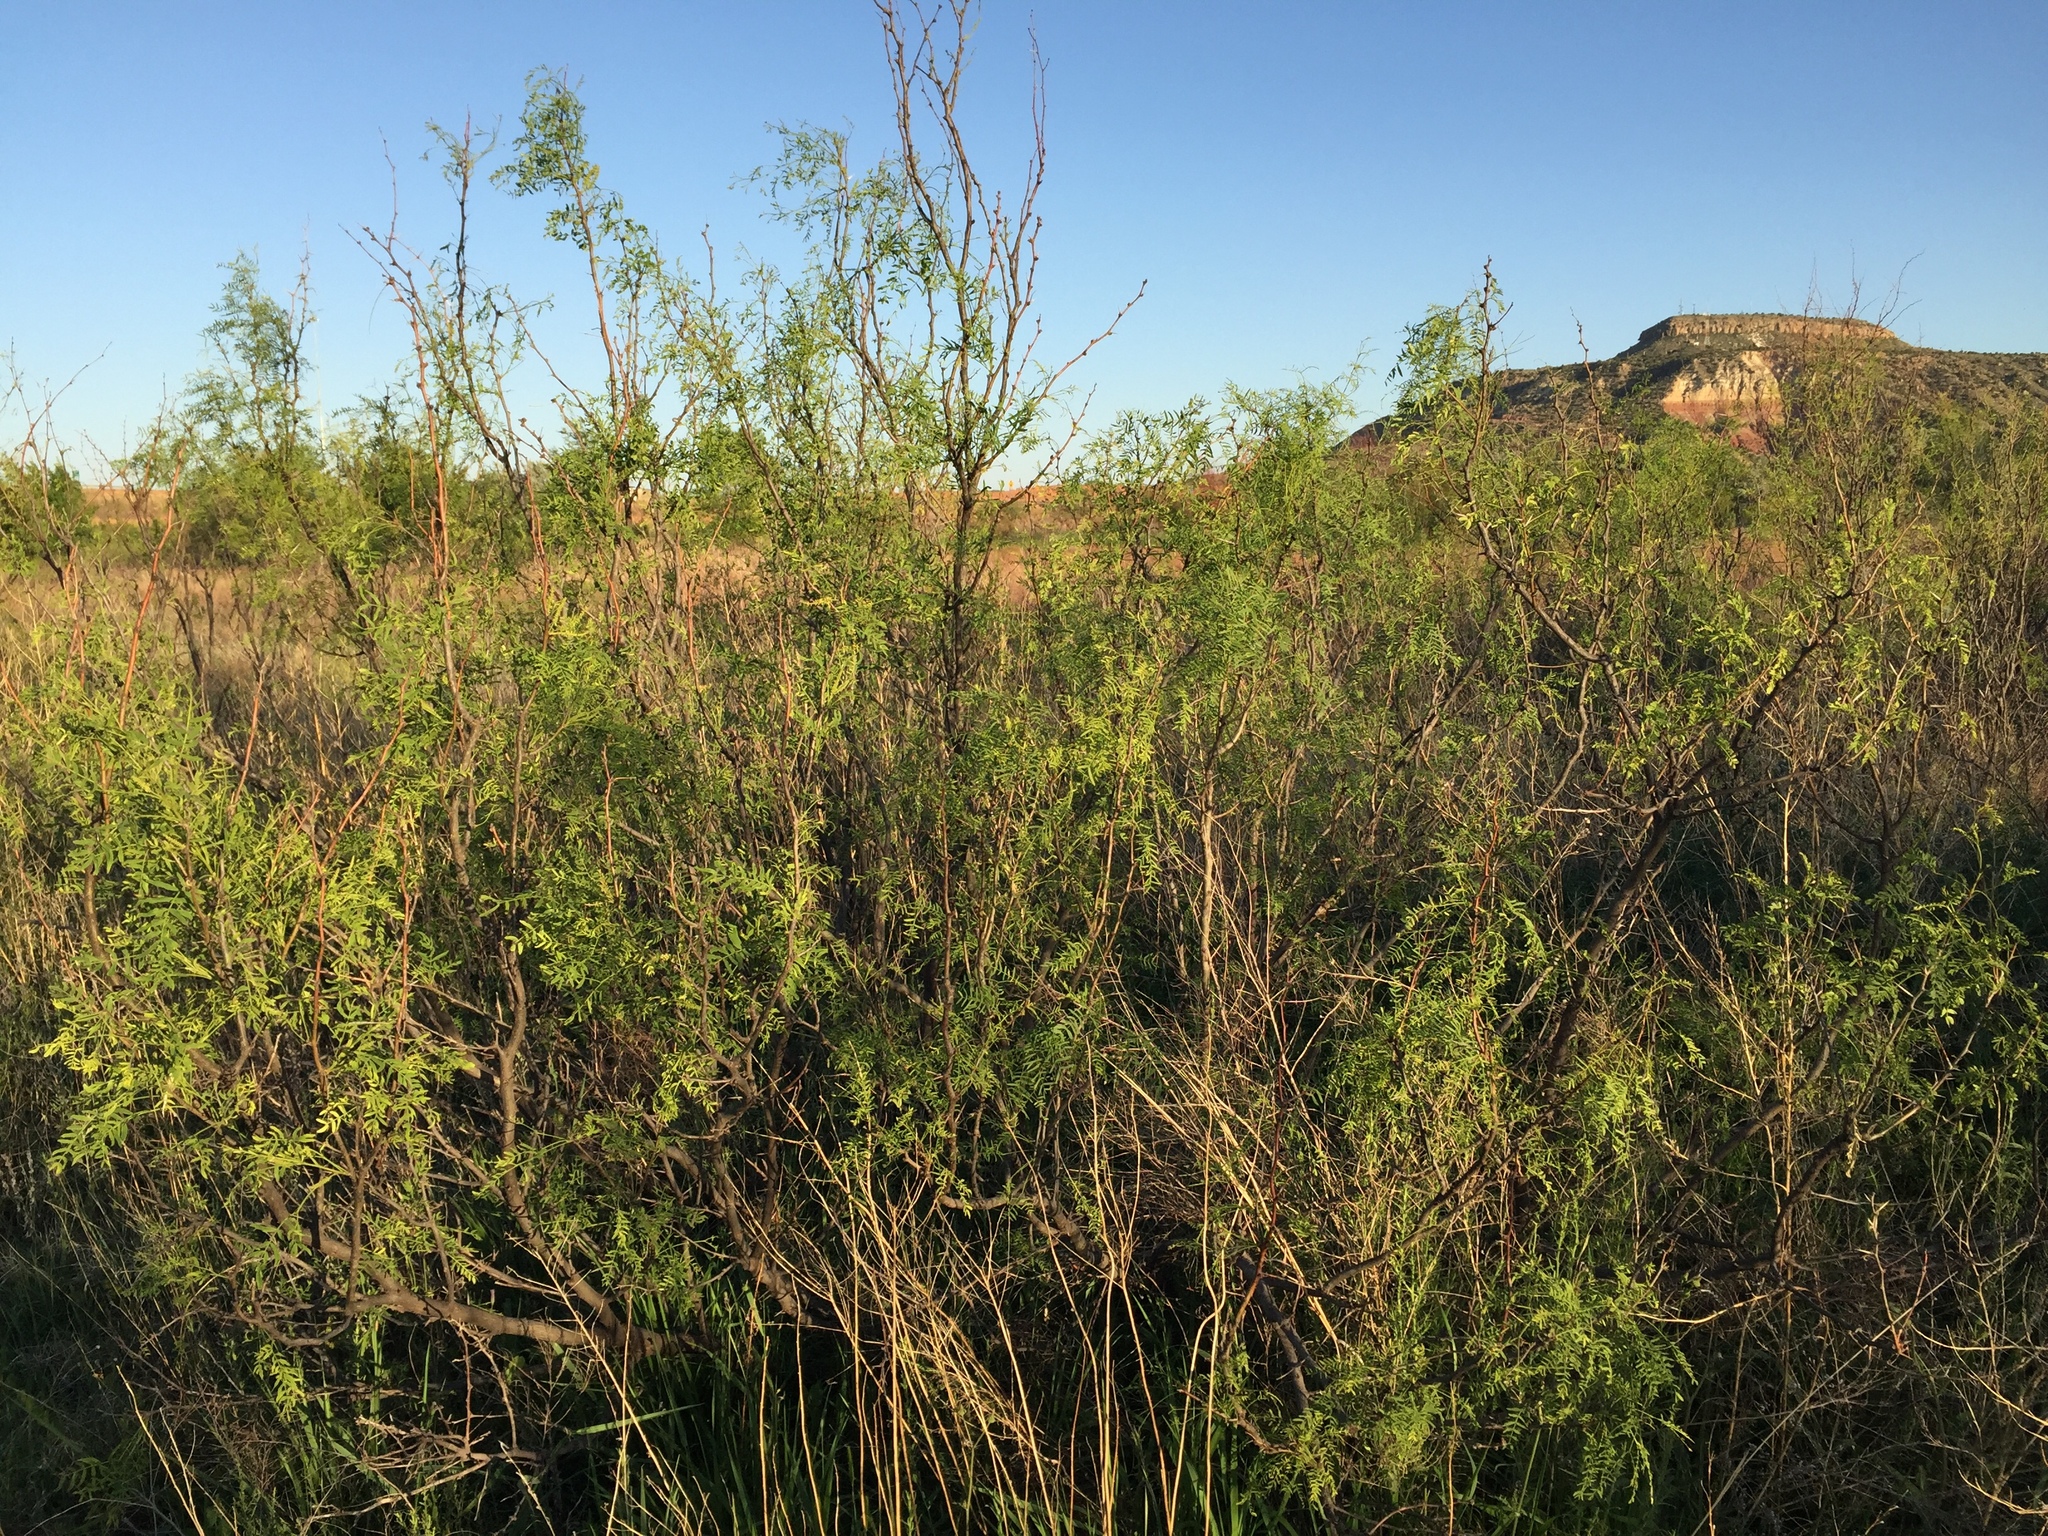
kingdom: Plantae
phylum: Tracheophyta
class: Magnoliopsida
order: Fabales
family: Fabaceae
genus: Prosopis
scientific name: Prosopis glandulosa
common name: Honey mesquite
